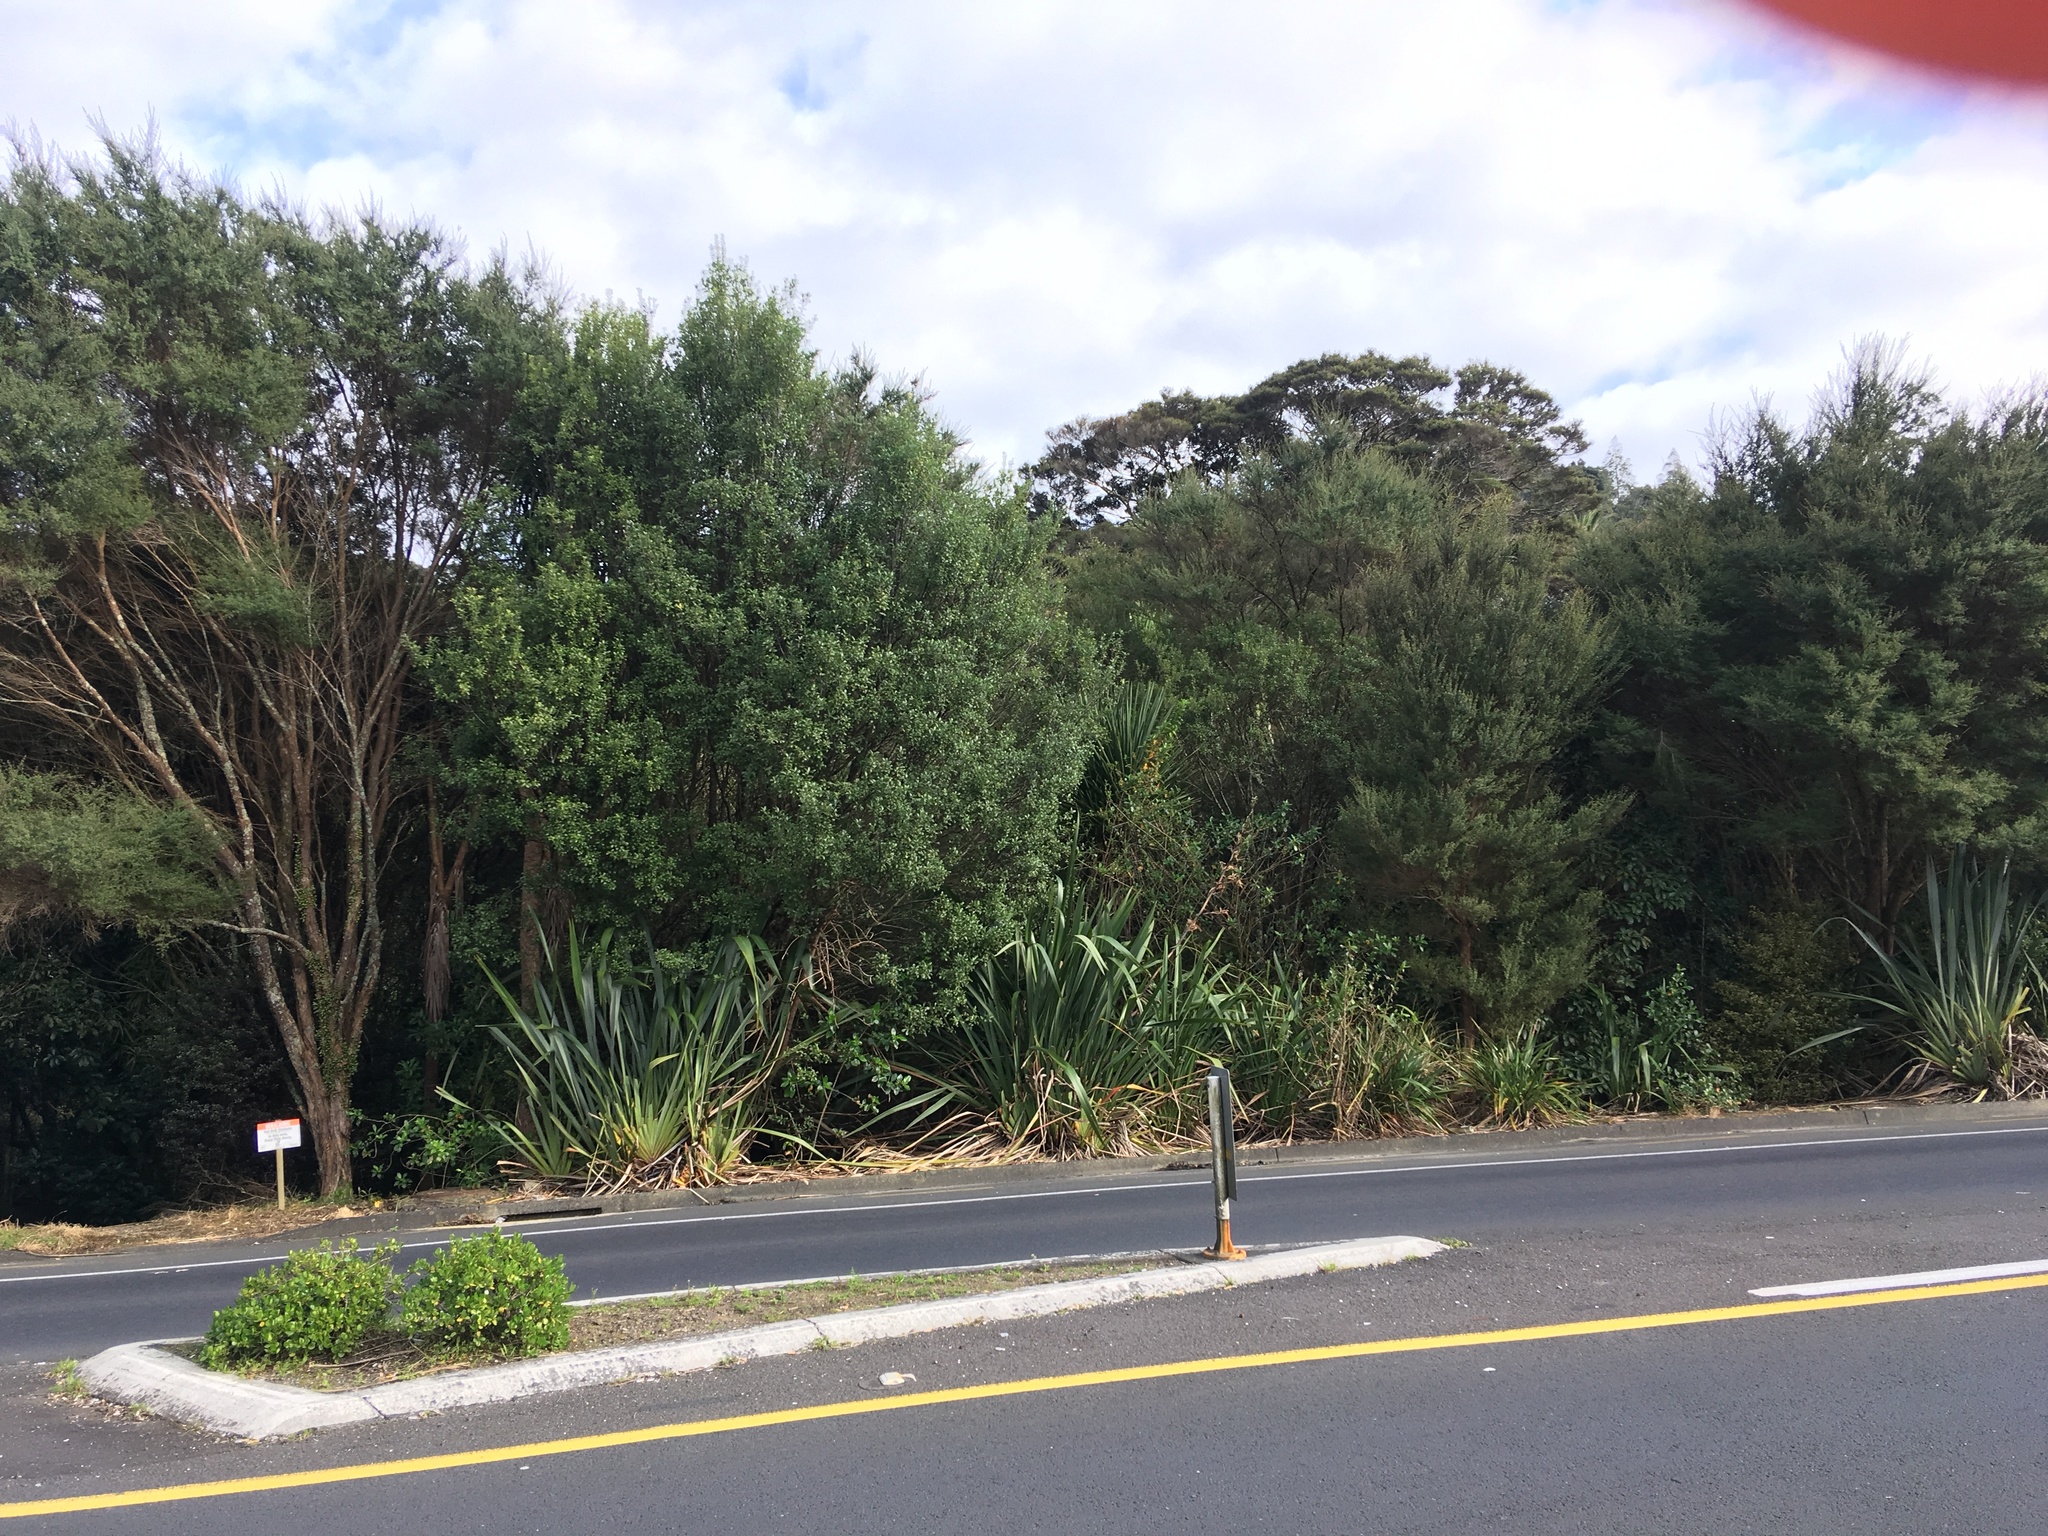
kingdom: Plantae
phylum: Tracheophyta
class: Magnoliopsida
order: Apiales
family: Pittosporaceae
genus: Pittosporum
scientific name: Pittosporum tenuifolium
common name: Kohuhu
